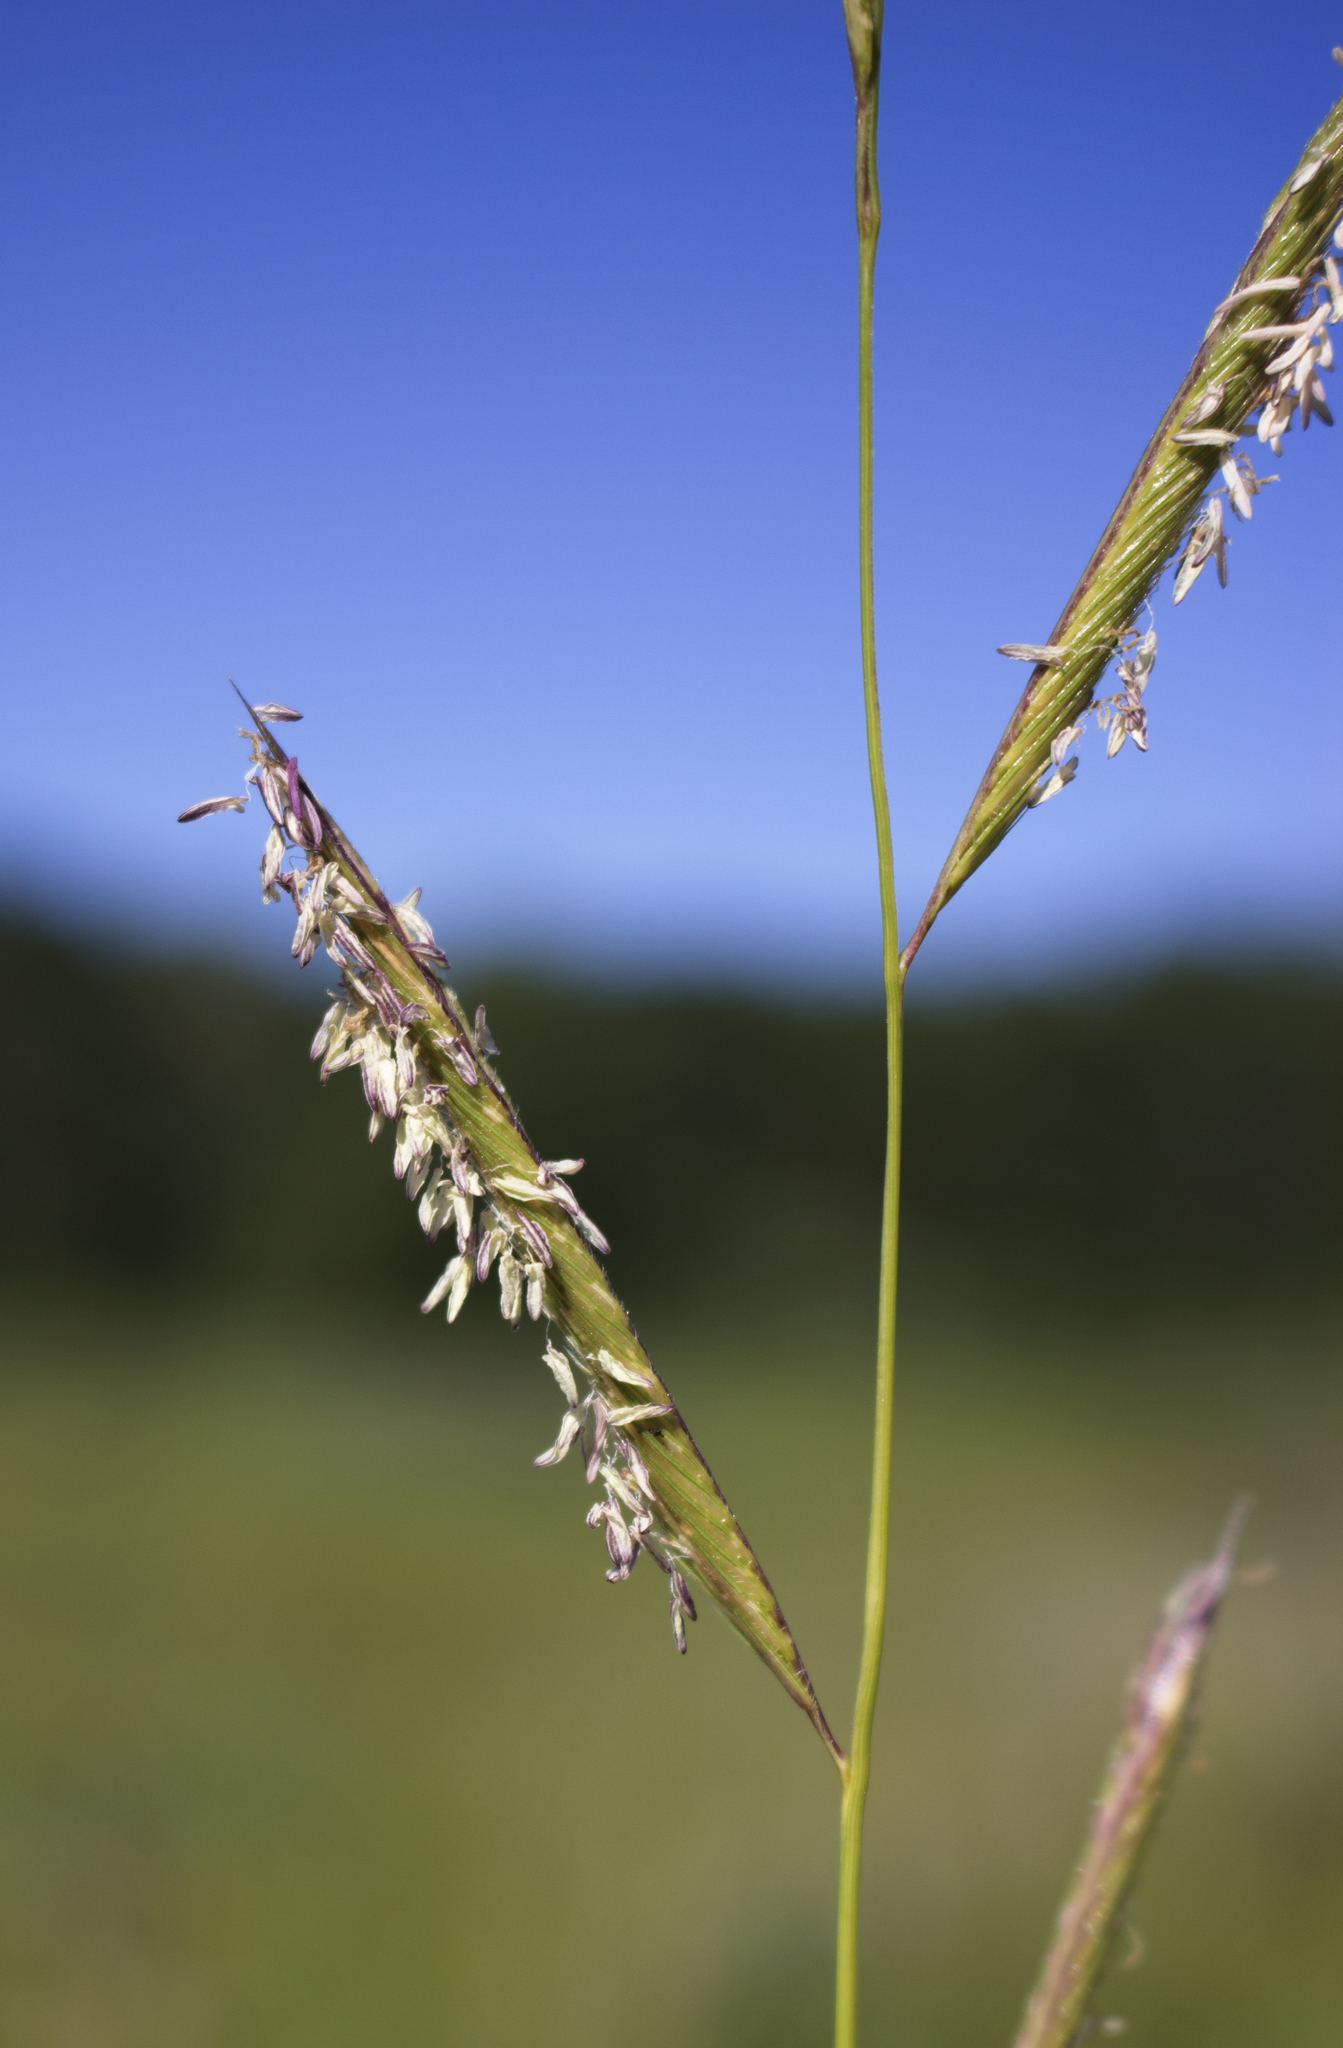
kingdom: Plantae
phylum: Tracheophyta
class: Liliopsida
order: Poales
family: Poaceae
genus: Sporobolus
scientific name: Sporobolus michauxianus
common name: Freshwater cordgrass
